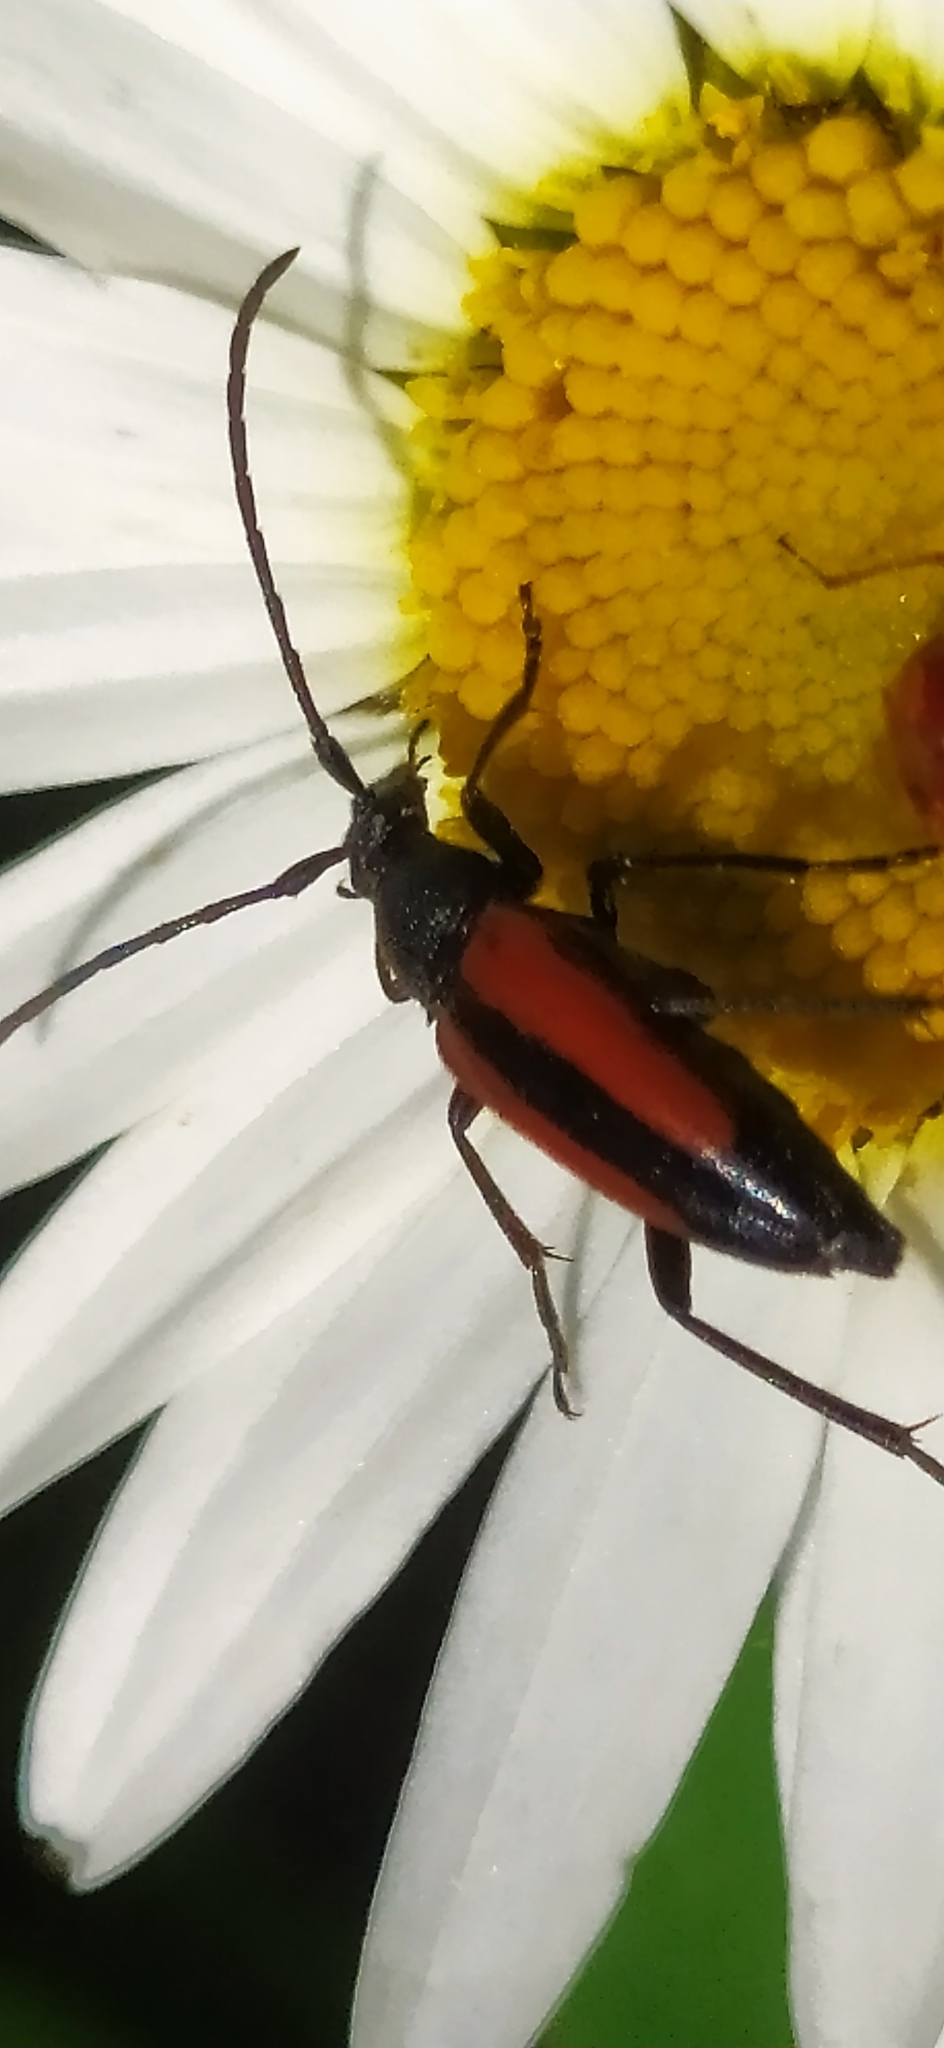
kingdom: Animalia
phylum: Arthropoda
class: Insecta
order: Coleoptera
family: Cerambycidae
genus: Stenurella
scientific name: Stenurella melanura
